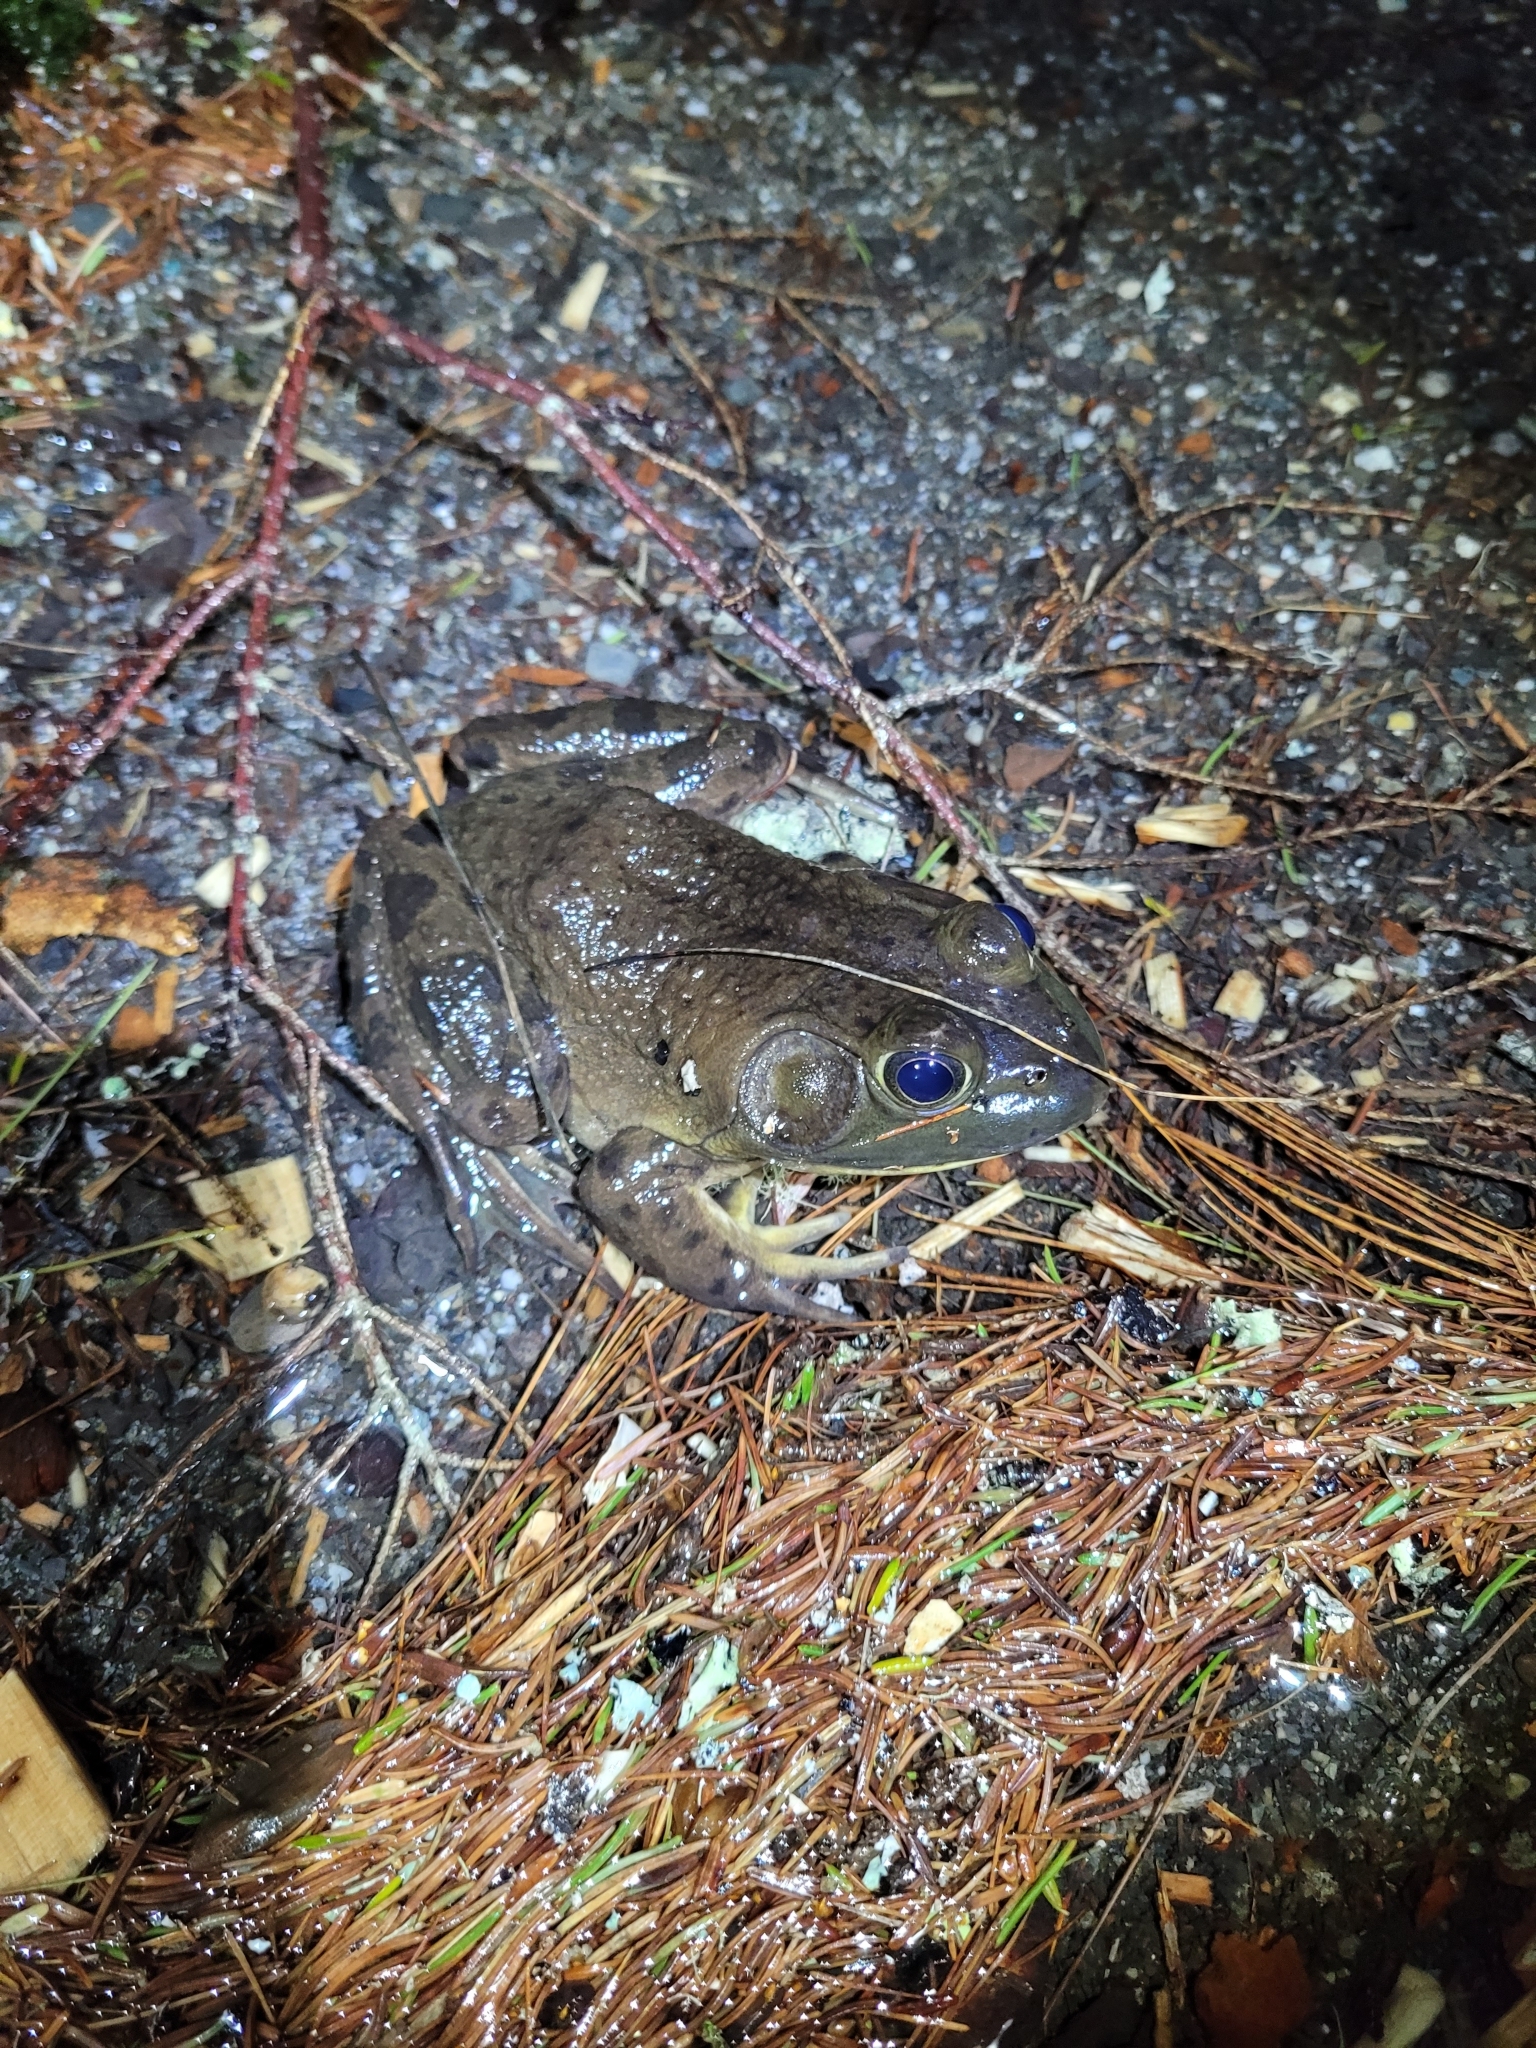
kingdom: Animalia
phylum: Chordata
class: Amphibia
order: Anura
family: Ranidae
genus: Lithobates
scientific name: Lithobates catesbeianus
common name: American bullfrog
